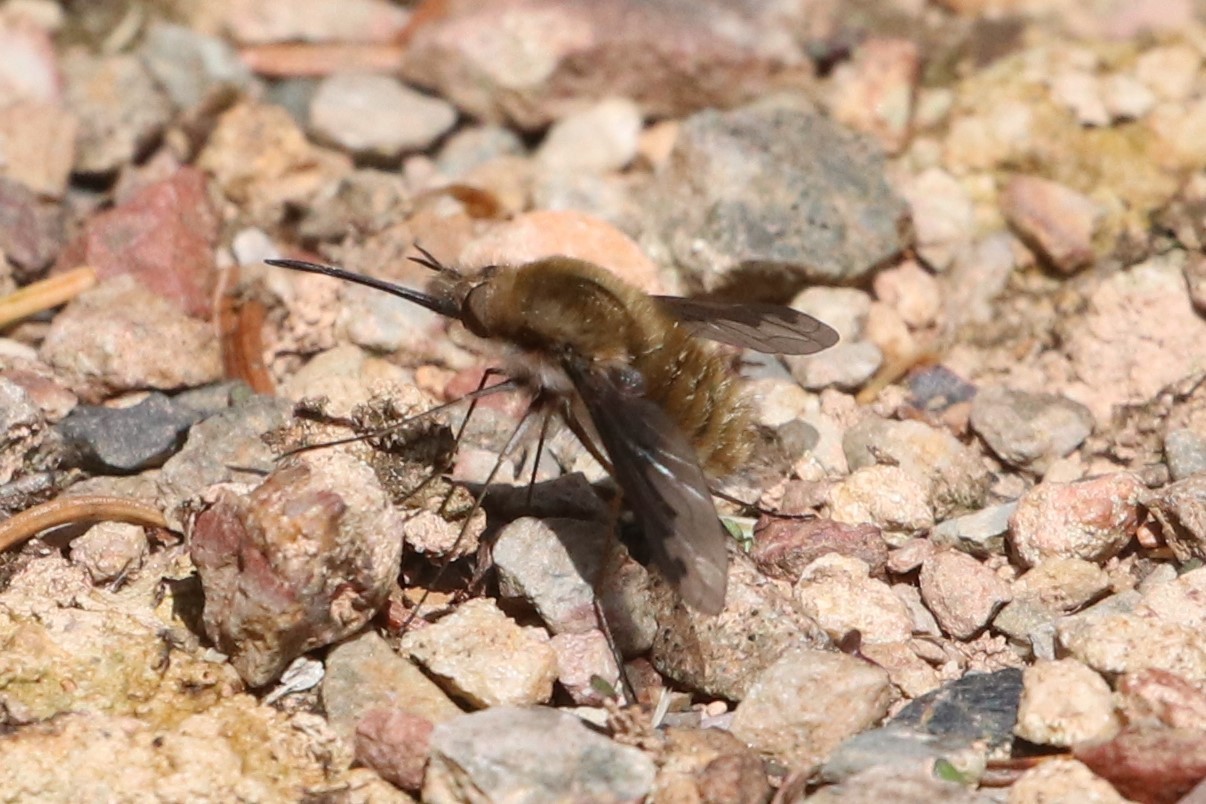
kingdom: Animalia
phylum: Arthropoda
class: Insecta
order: Diptera
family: Bombyliidae
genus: Bombylius
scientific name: Bombylius major
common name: Bee fly
